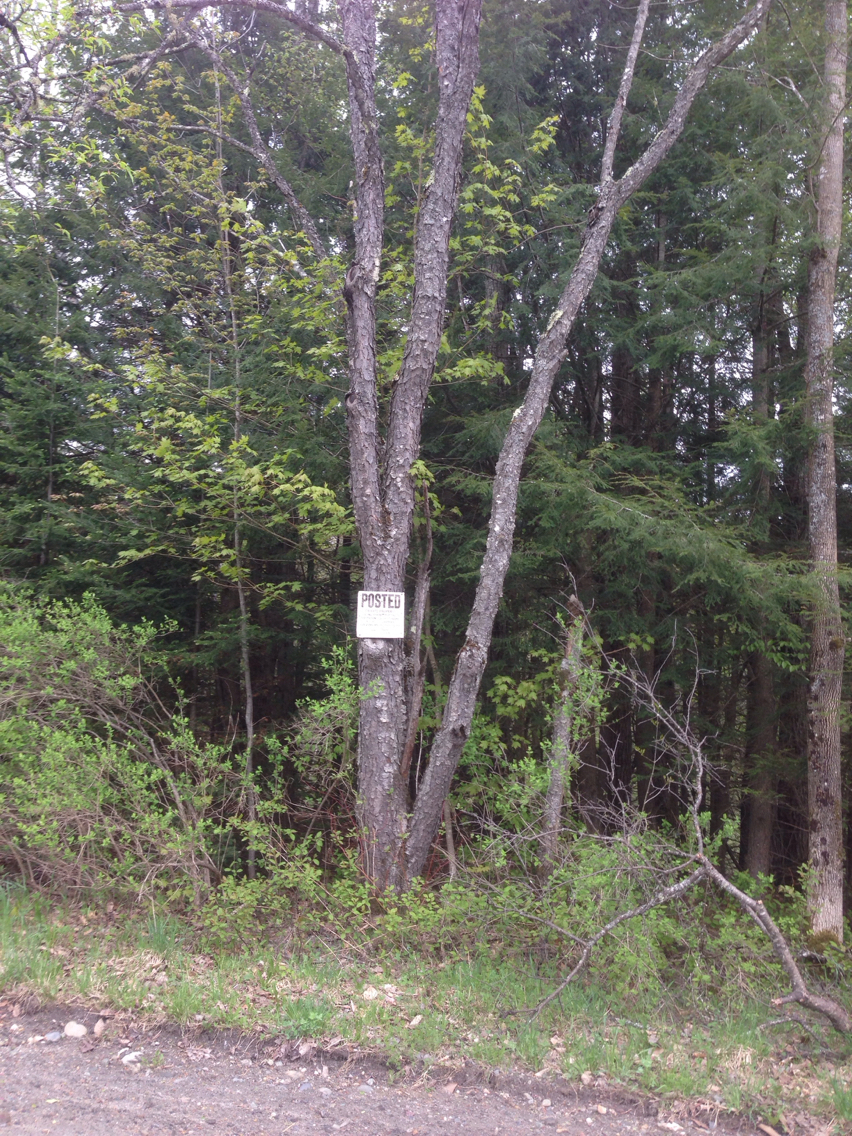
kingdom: Plantae
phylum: Tracheophyta
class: Magnoliopsida
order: Rosales
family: Rosaceae
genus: Prunus
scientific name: Prunus serotina
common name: Black cherry
